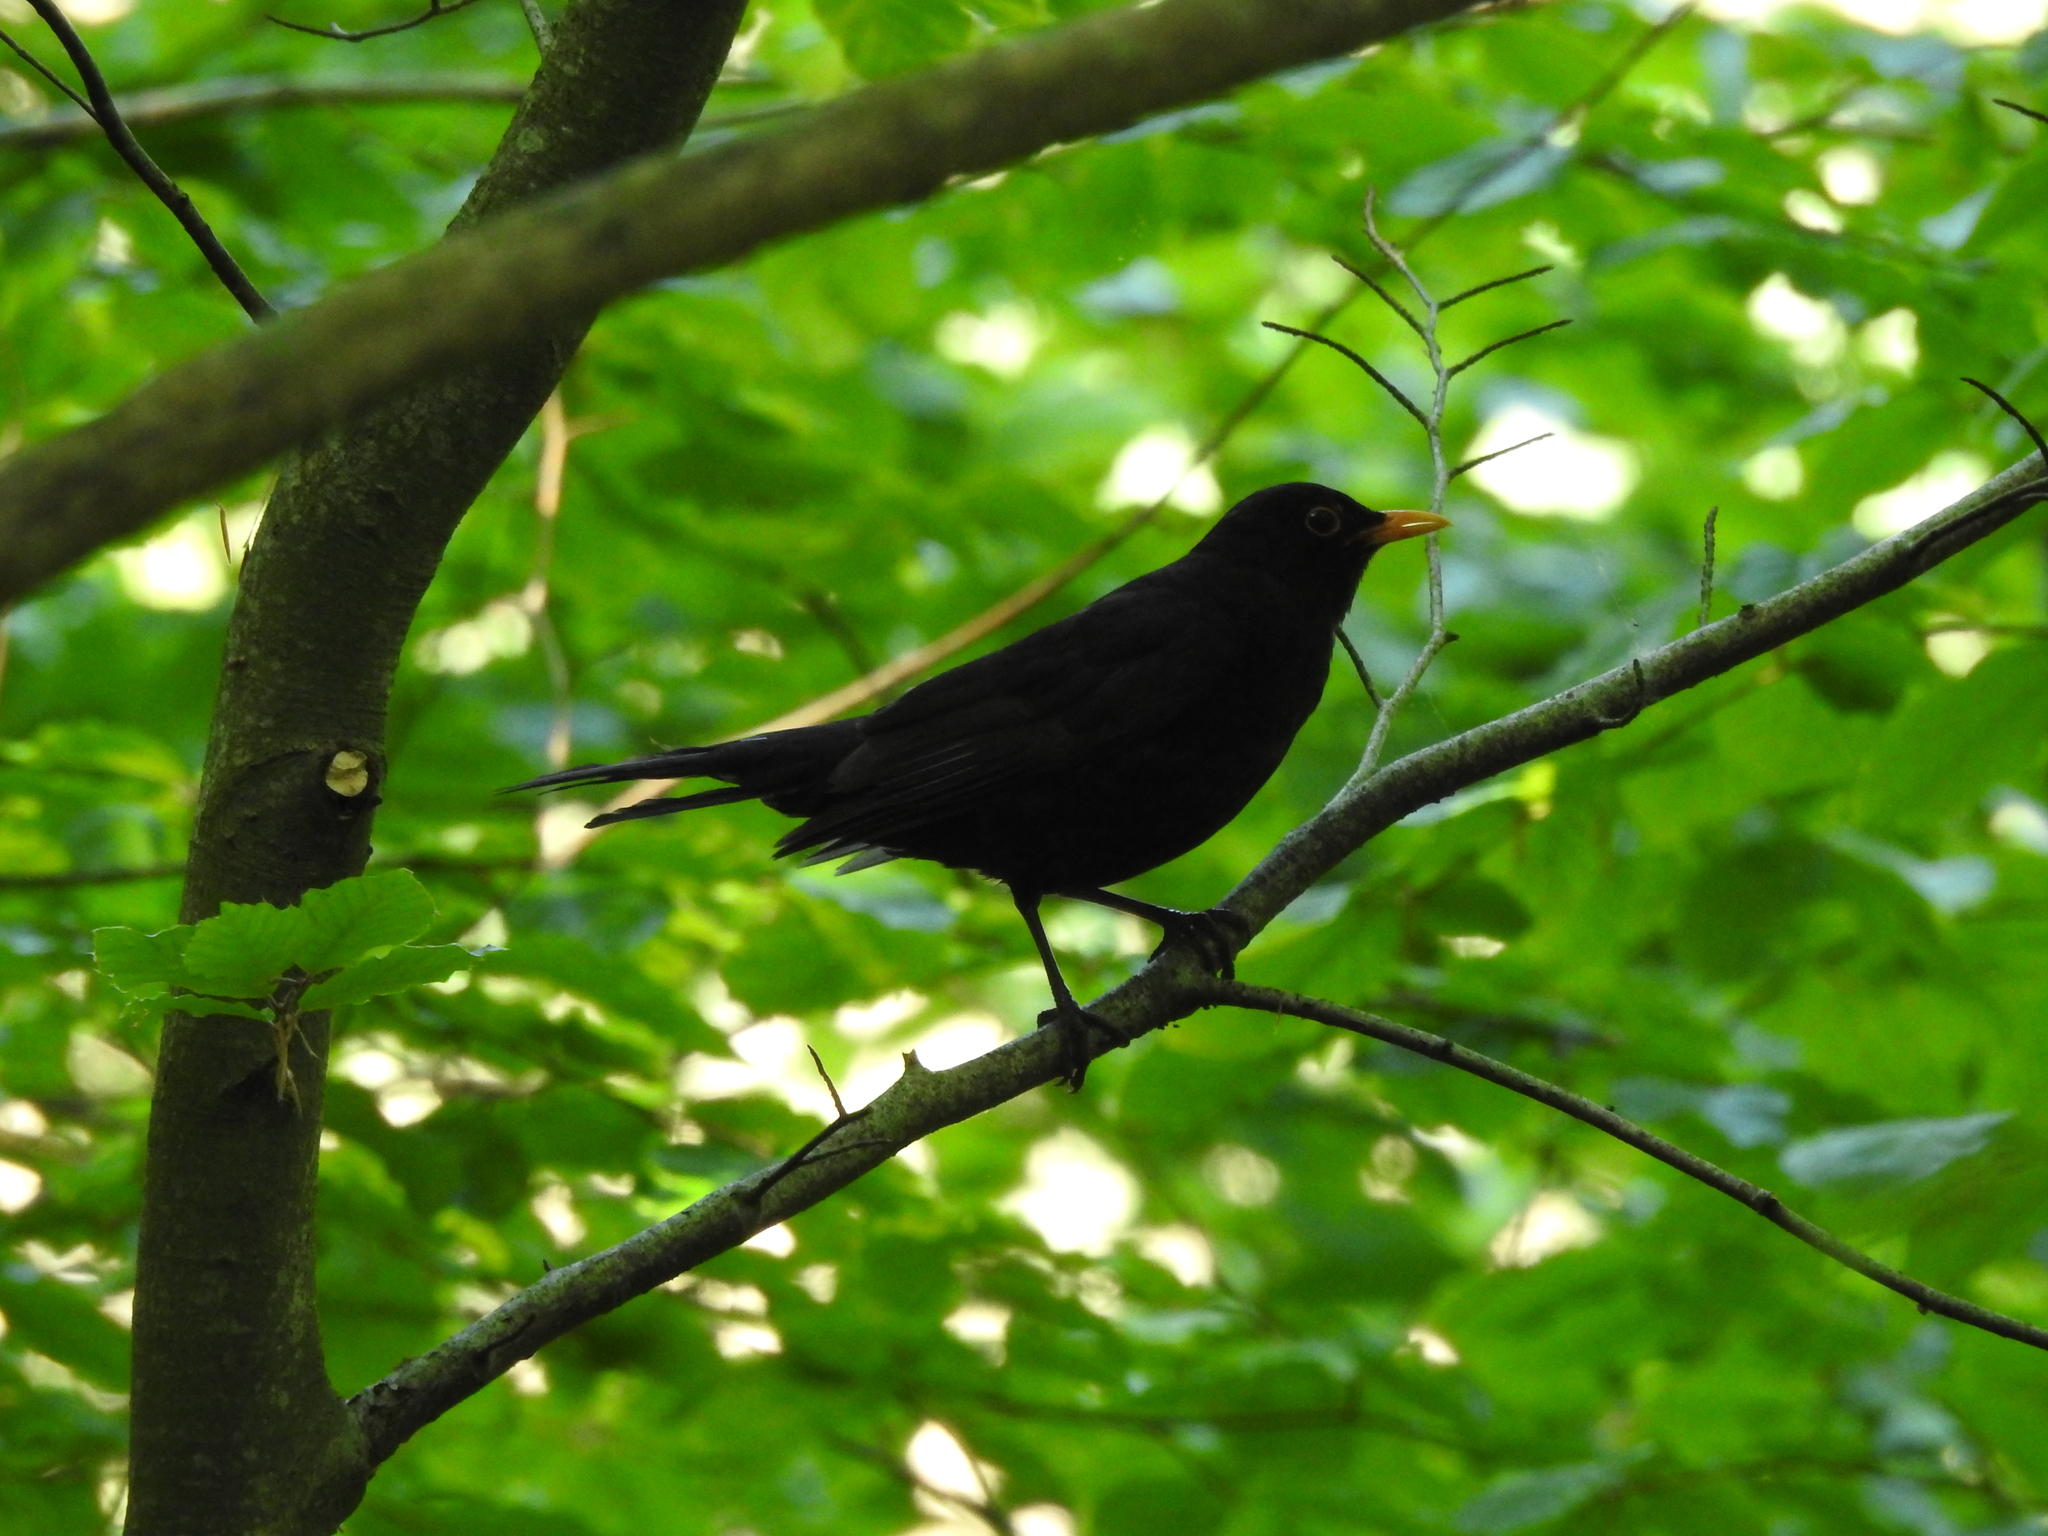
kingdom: Animalia
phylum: Chordata
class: Aves
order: Passeriformes
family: Turdidae
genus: Turdus
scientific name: Turdus merula
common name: Common blackbird
